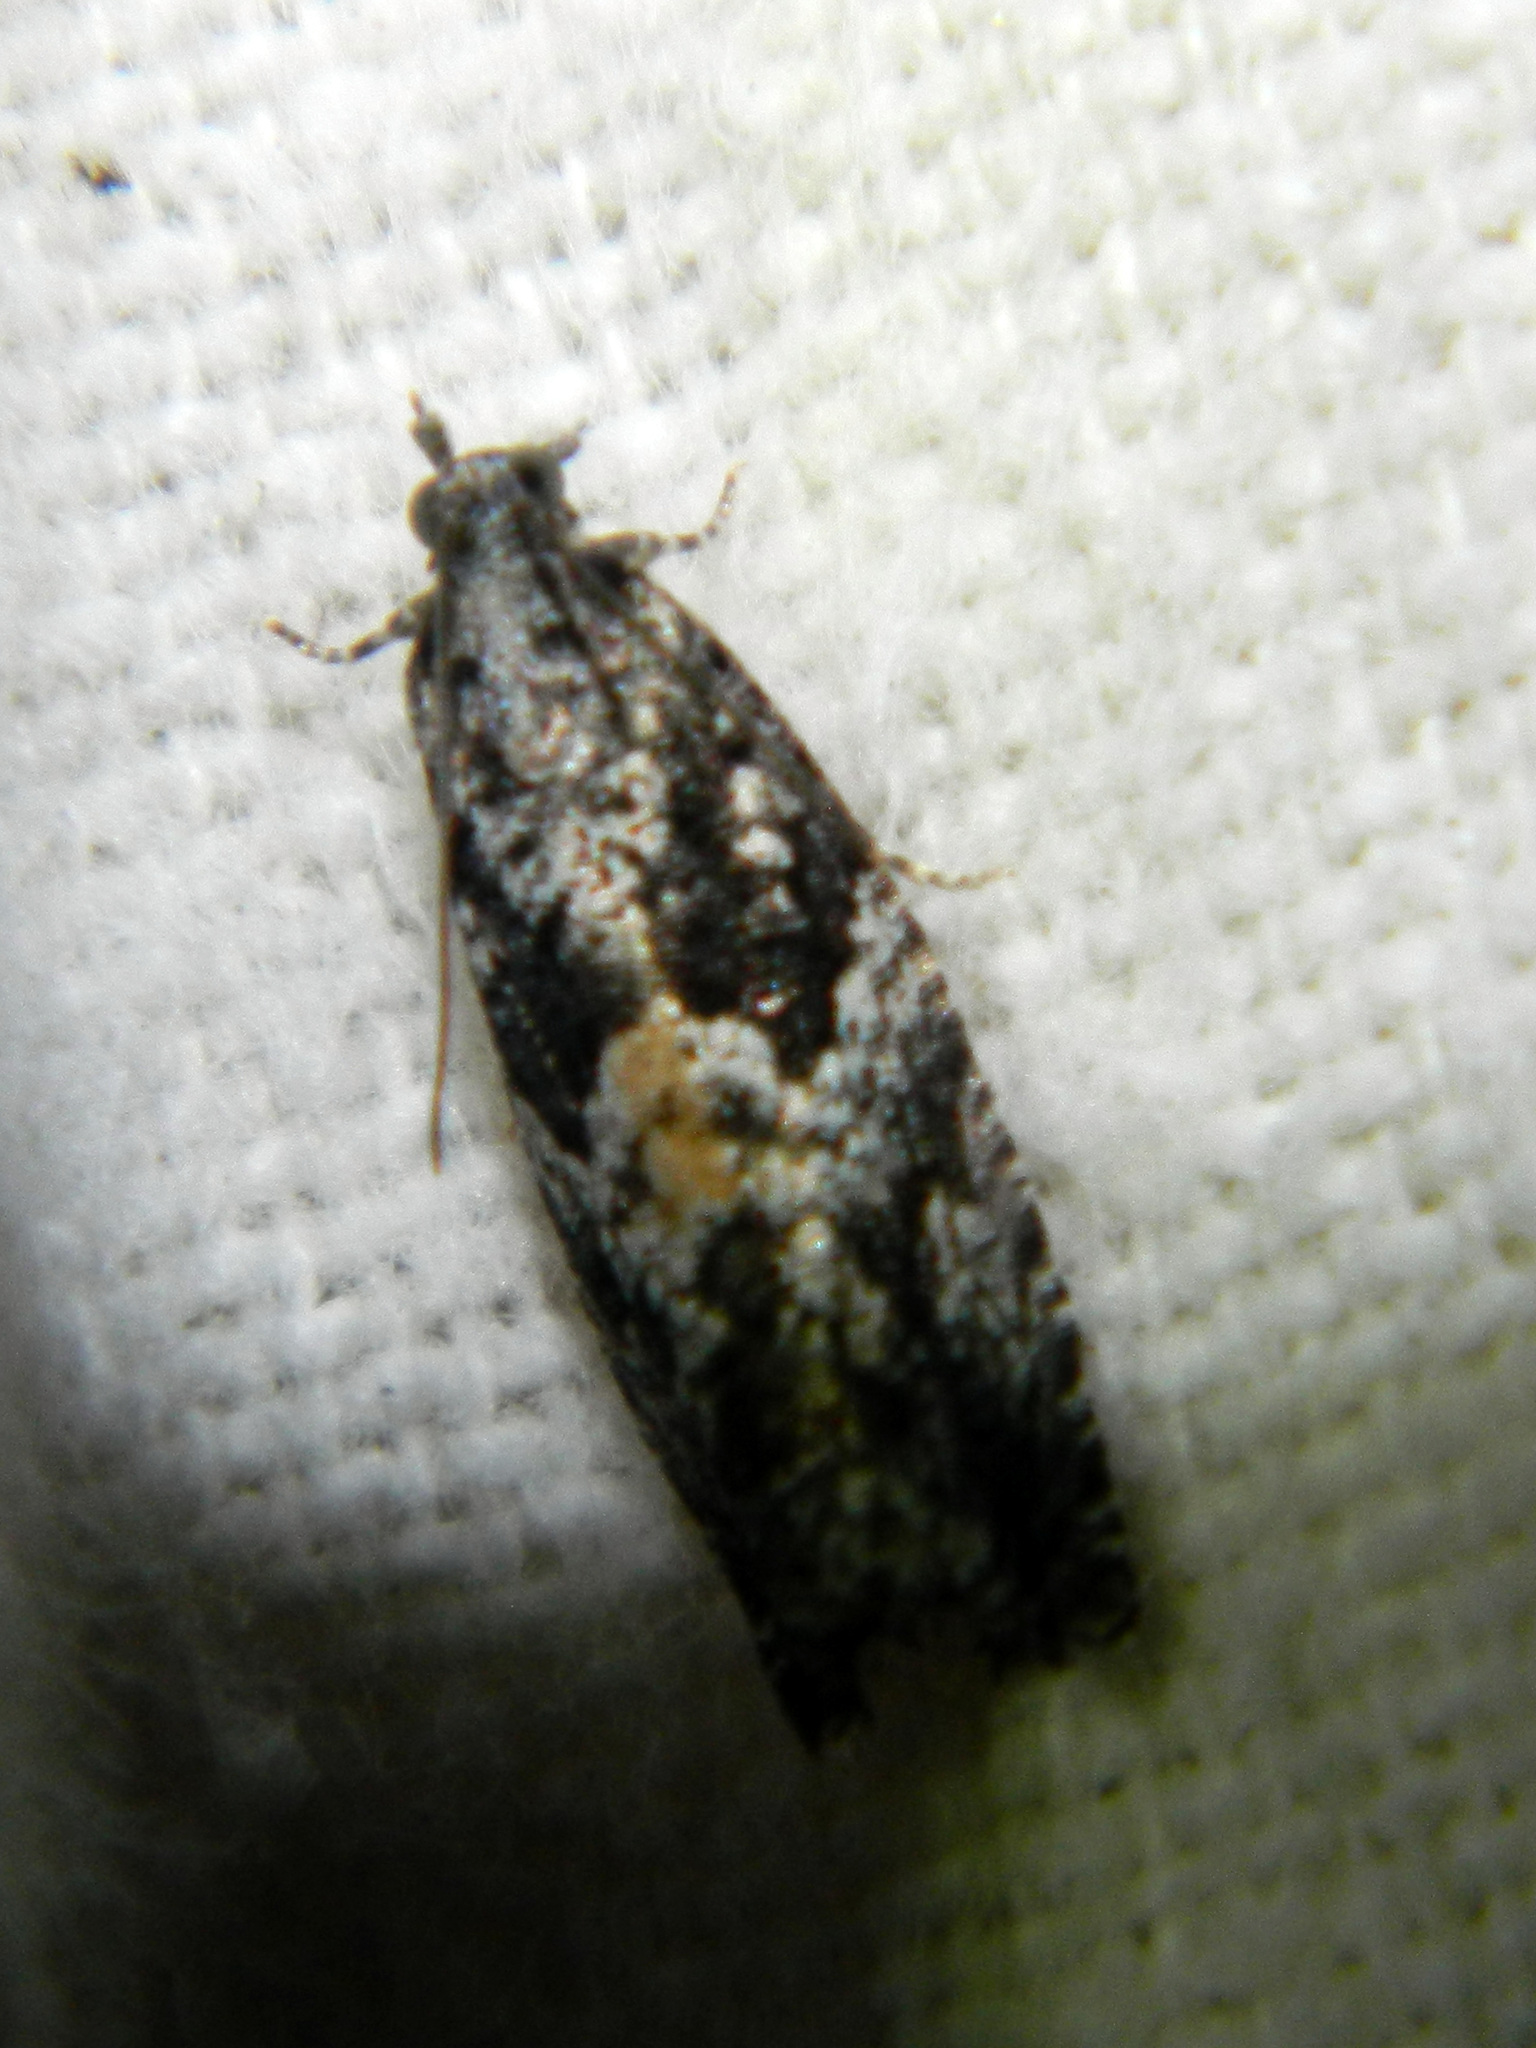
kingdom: Animalia
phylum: Arthropoda
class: Insecta
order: Lepidoptera
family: Tortricidae
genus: Epinotia
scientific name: Epinotia nisella
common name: Grey poplar bell
